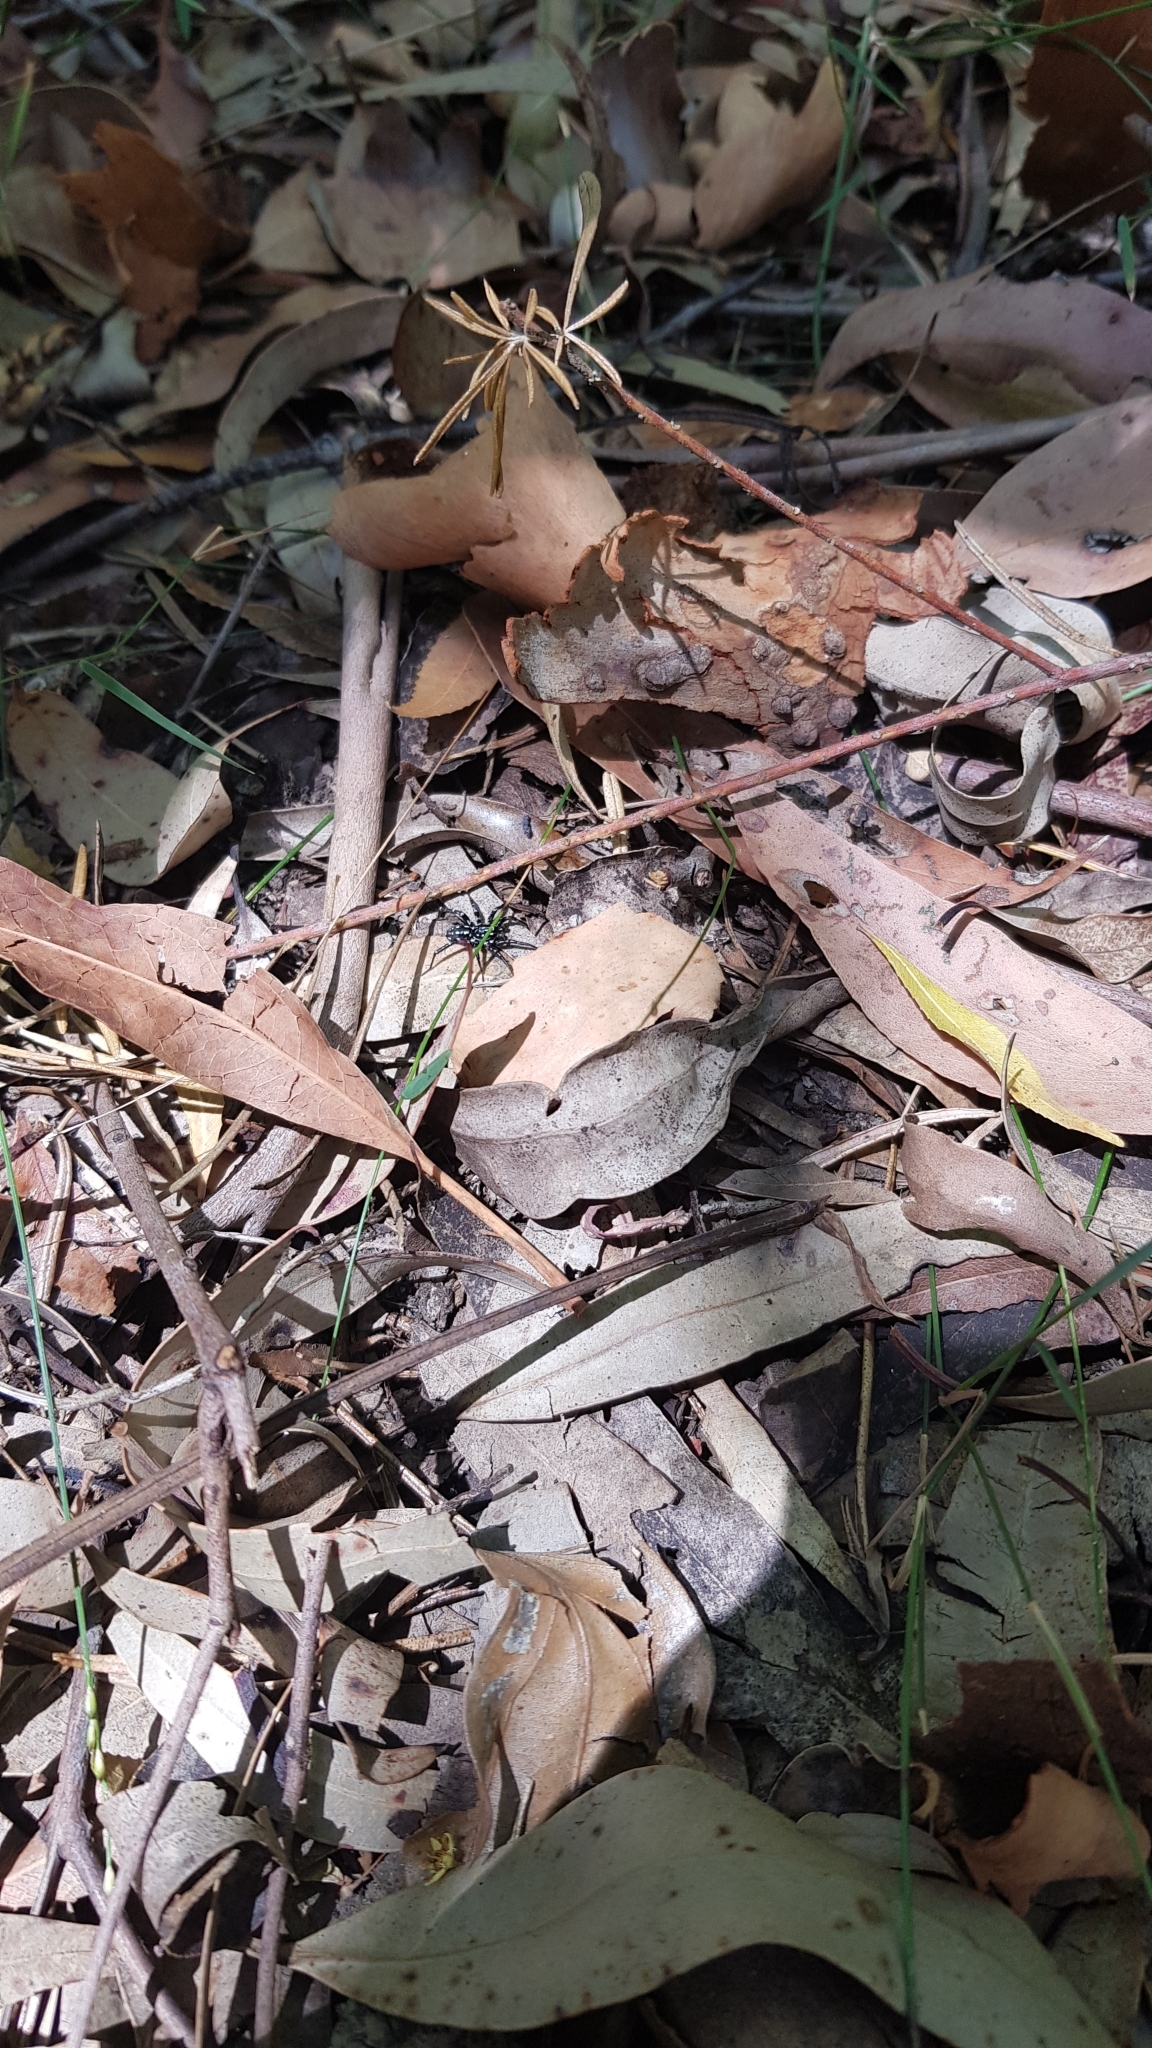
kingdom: Animalia
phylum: Arthropoda
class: Arachnida
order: Araneae
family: Corinnidae
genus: Nyssus
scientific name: Nyssus albopunctatus
